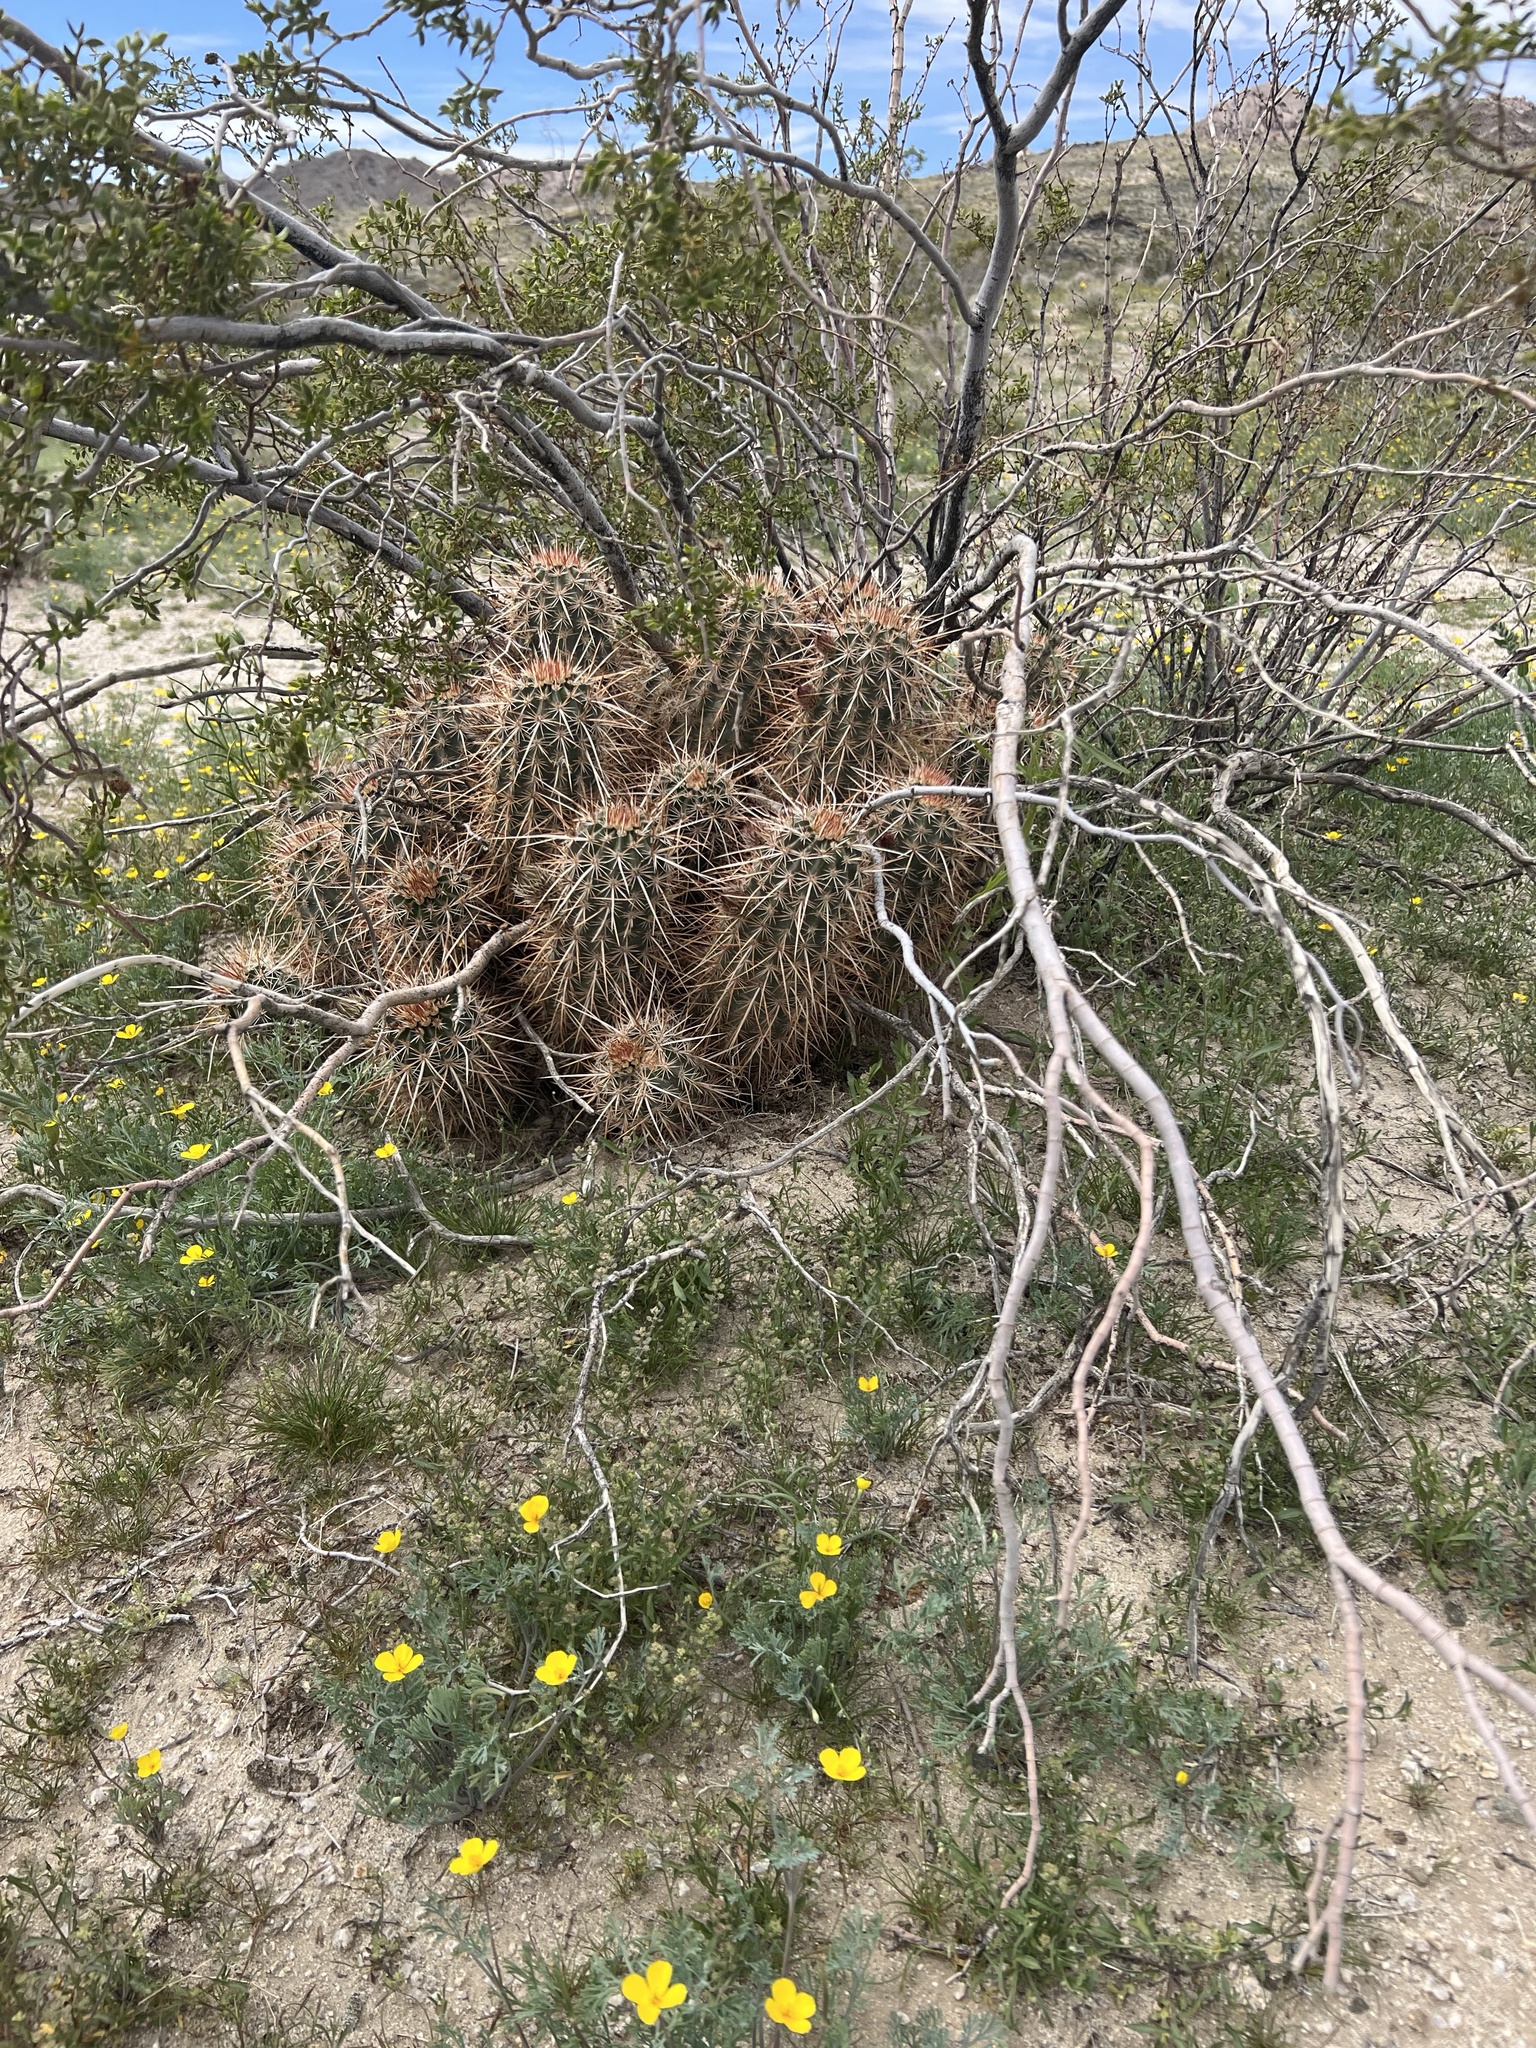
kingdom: Plantae
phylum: Tracheophyta
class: Magnoliopsida
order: Caryophyllales
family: Cactaceae
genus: Echinocereus
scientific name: Echinocereus engelmannii
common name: Engelmann's hedgehog cactus
